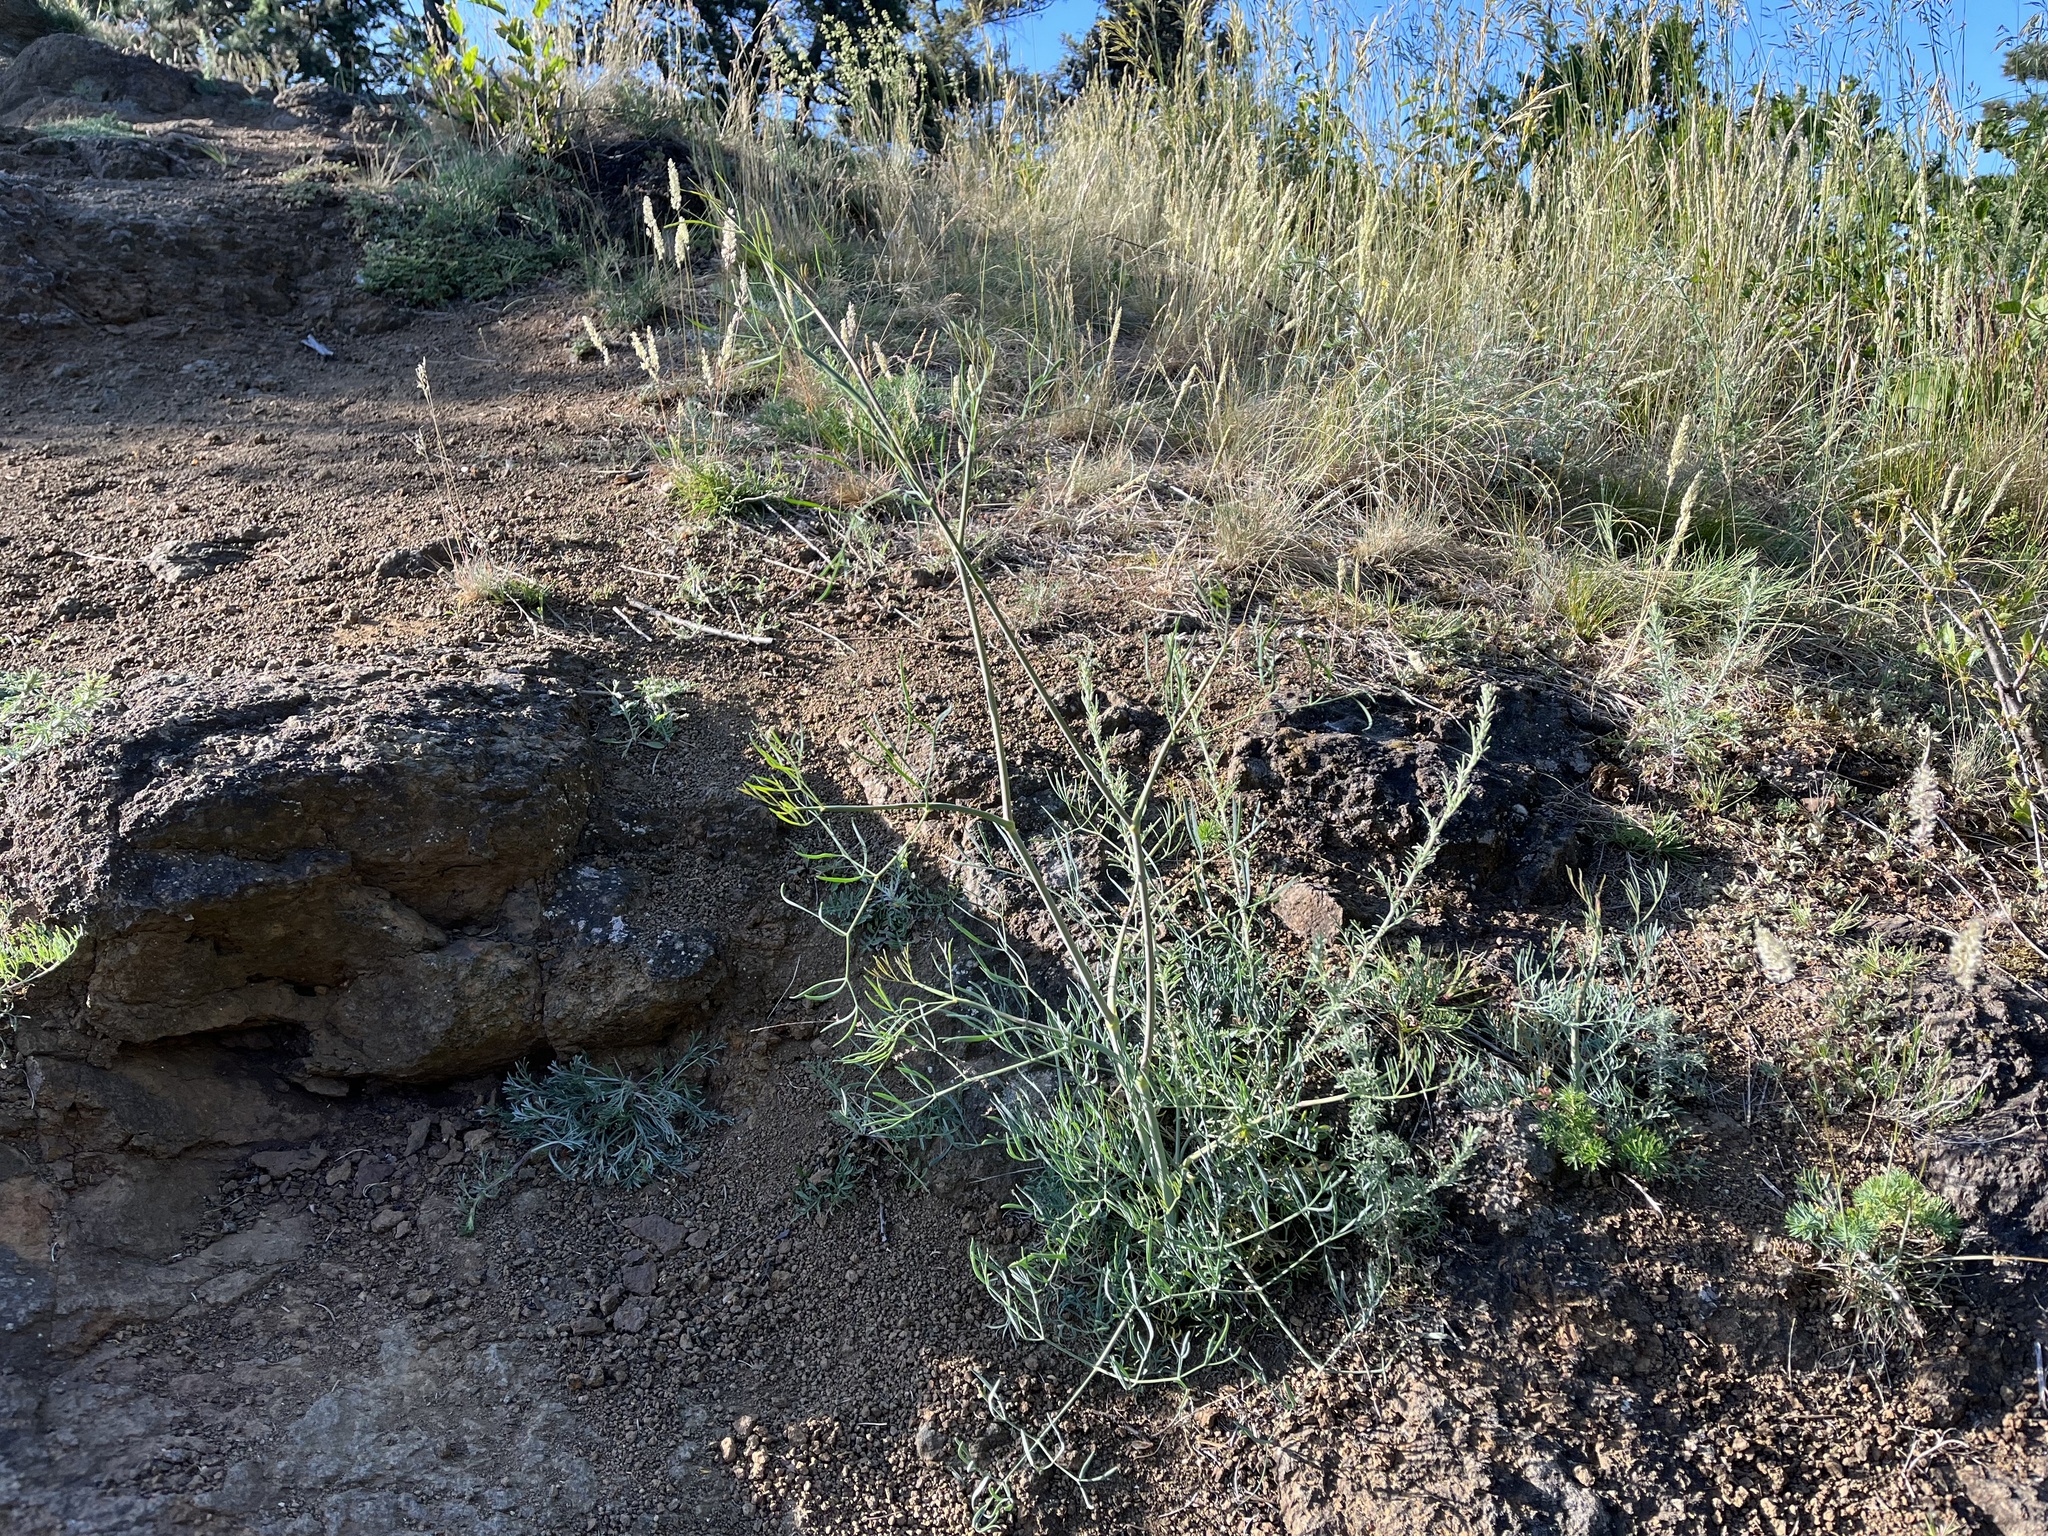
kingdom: Plantae
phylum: Tracheophyta
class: Magnoliopsida
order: Apiales
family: Apiaceae
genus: Seseli
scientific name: Seseli osseum
